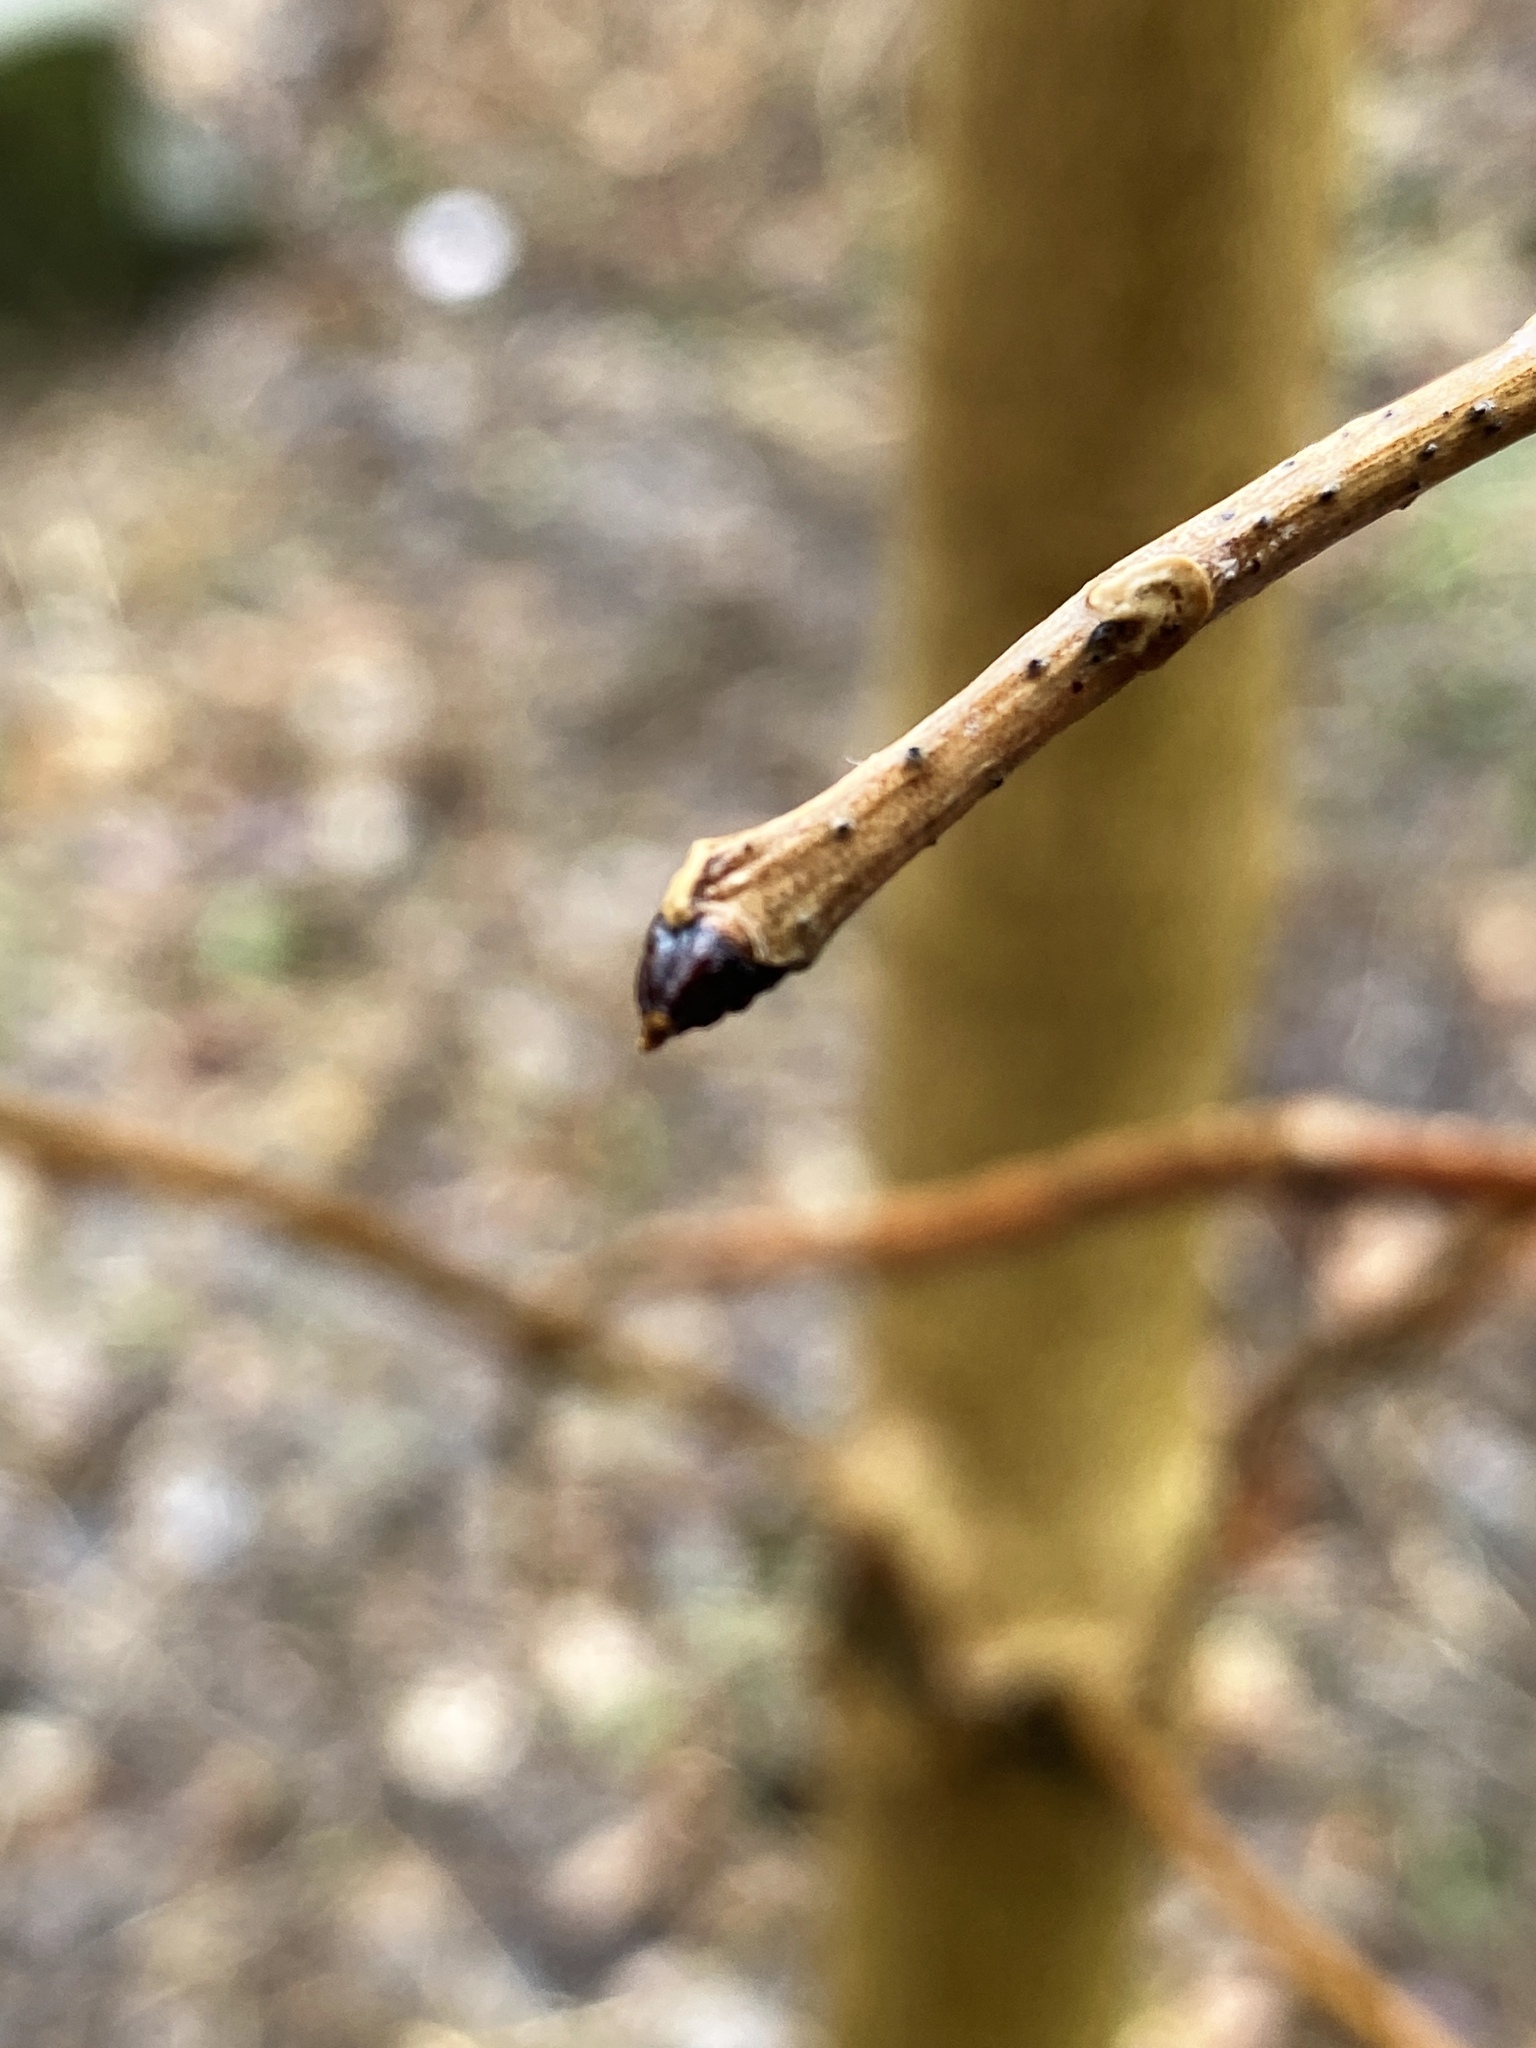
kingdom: Plantae
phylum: Tracheophyta
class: Magnoliopsida
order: Sapindales
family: Simaroubaceae
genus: Ailanthus
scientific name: Ailanthus altissima
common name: Tree-of-heaven
